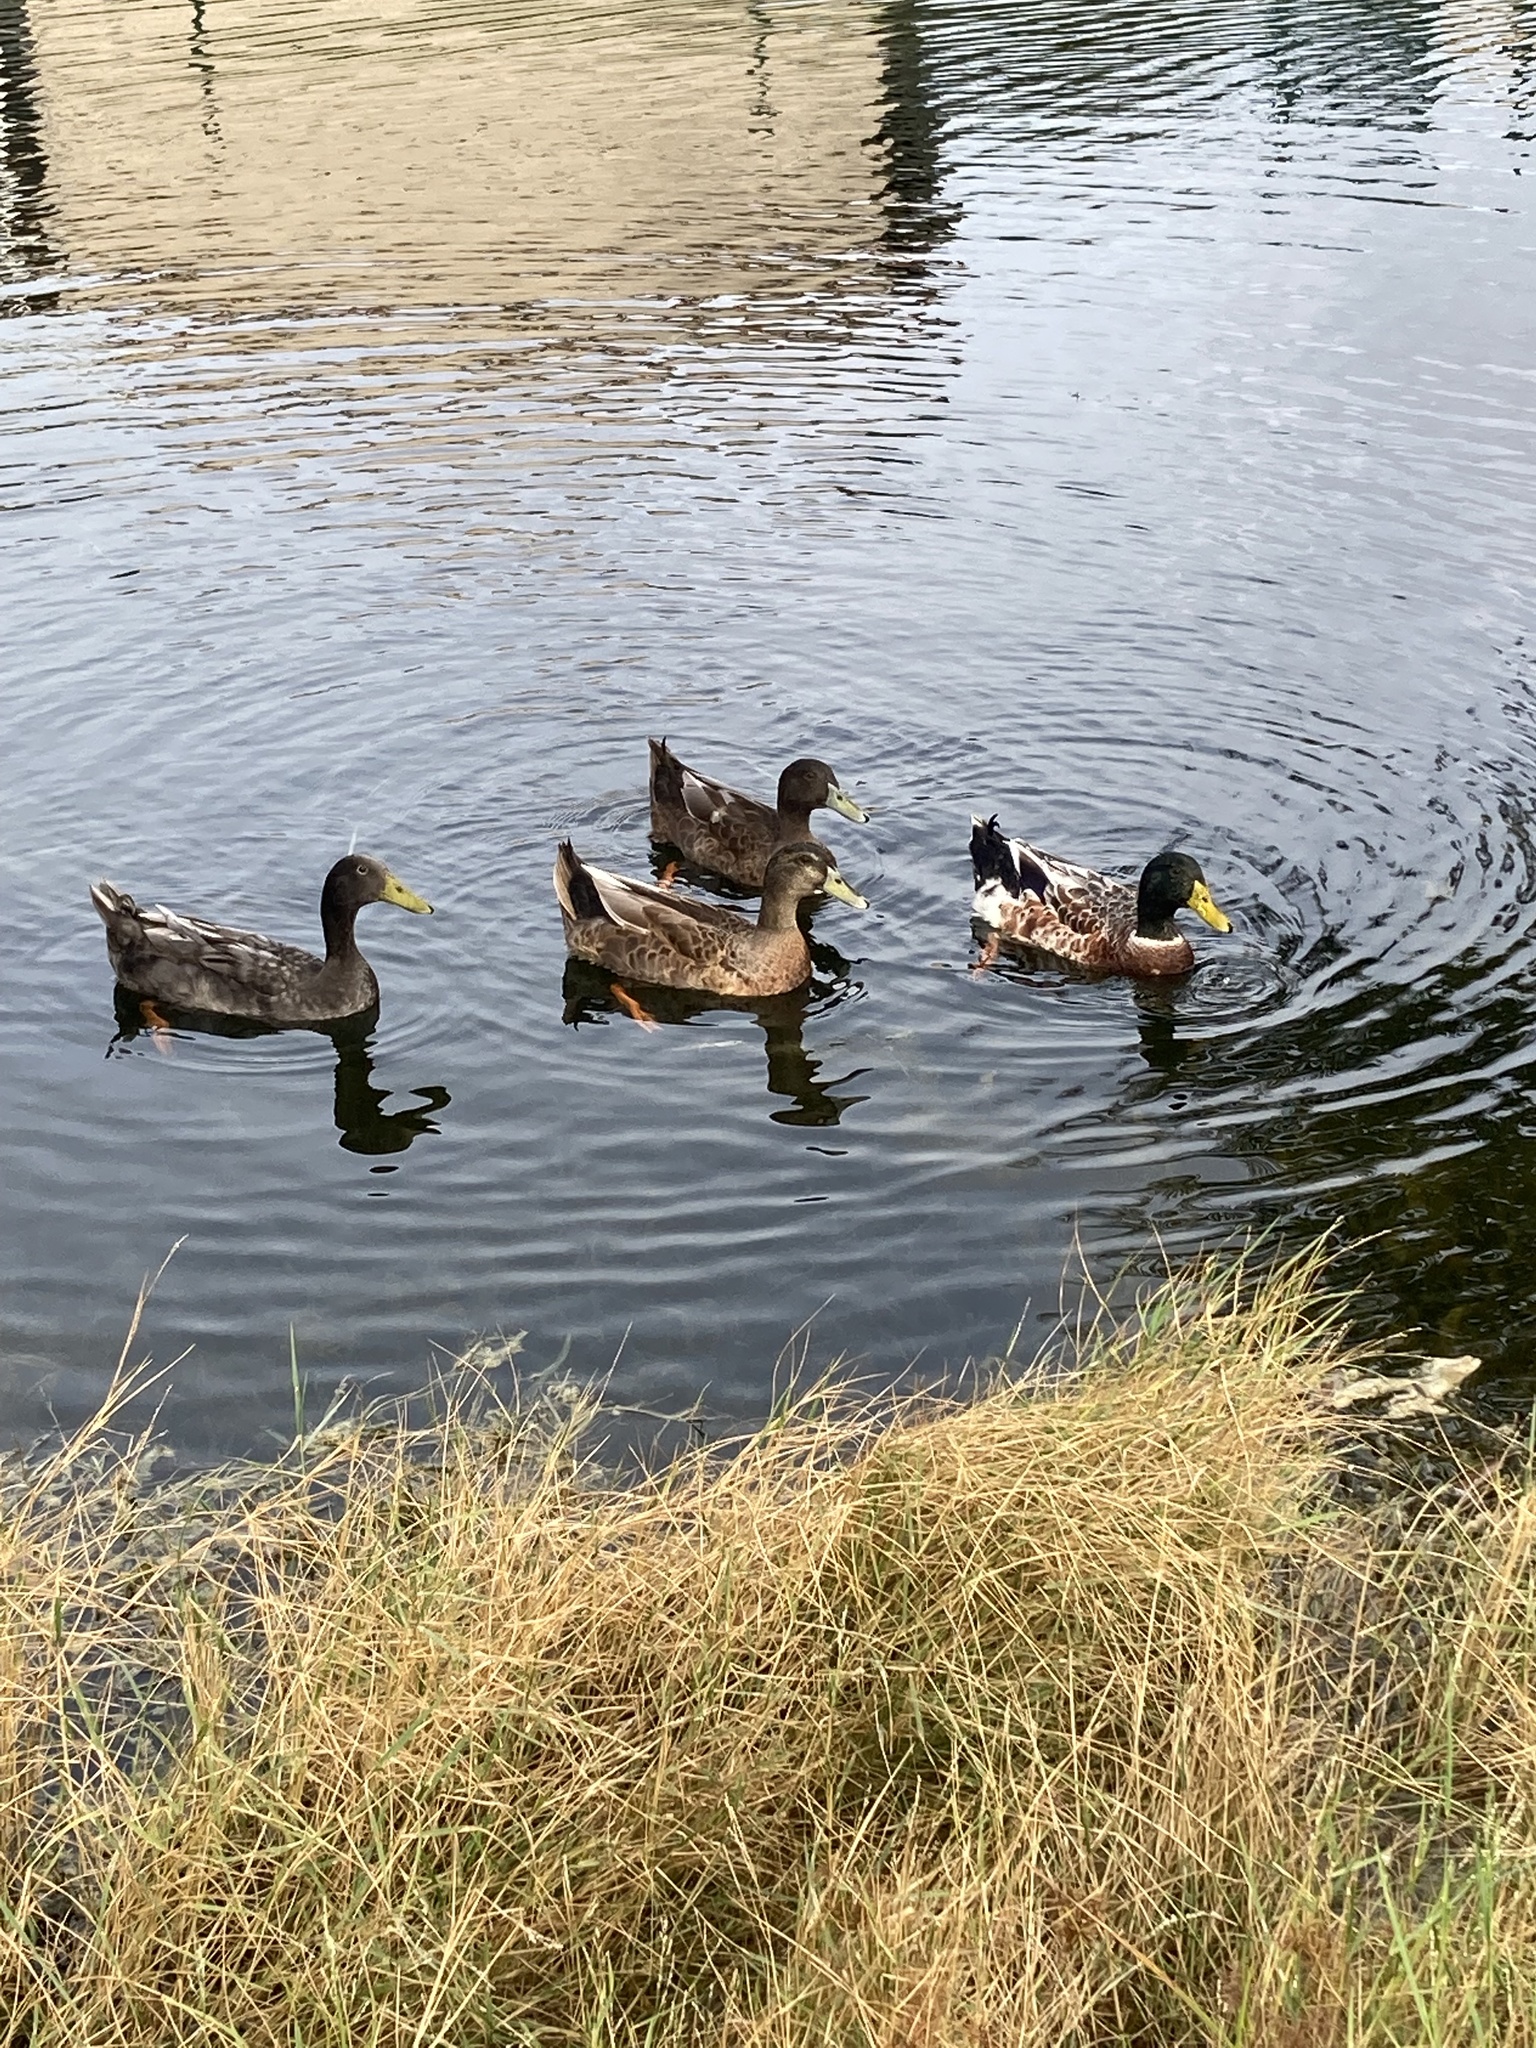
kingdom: Animalia
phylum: Chordata
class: Aves
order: Anseriformes
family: Anatidae
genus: Anas
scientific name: Anas platyrhynchos
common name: Mallard
